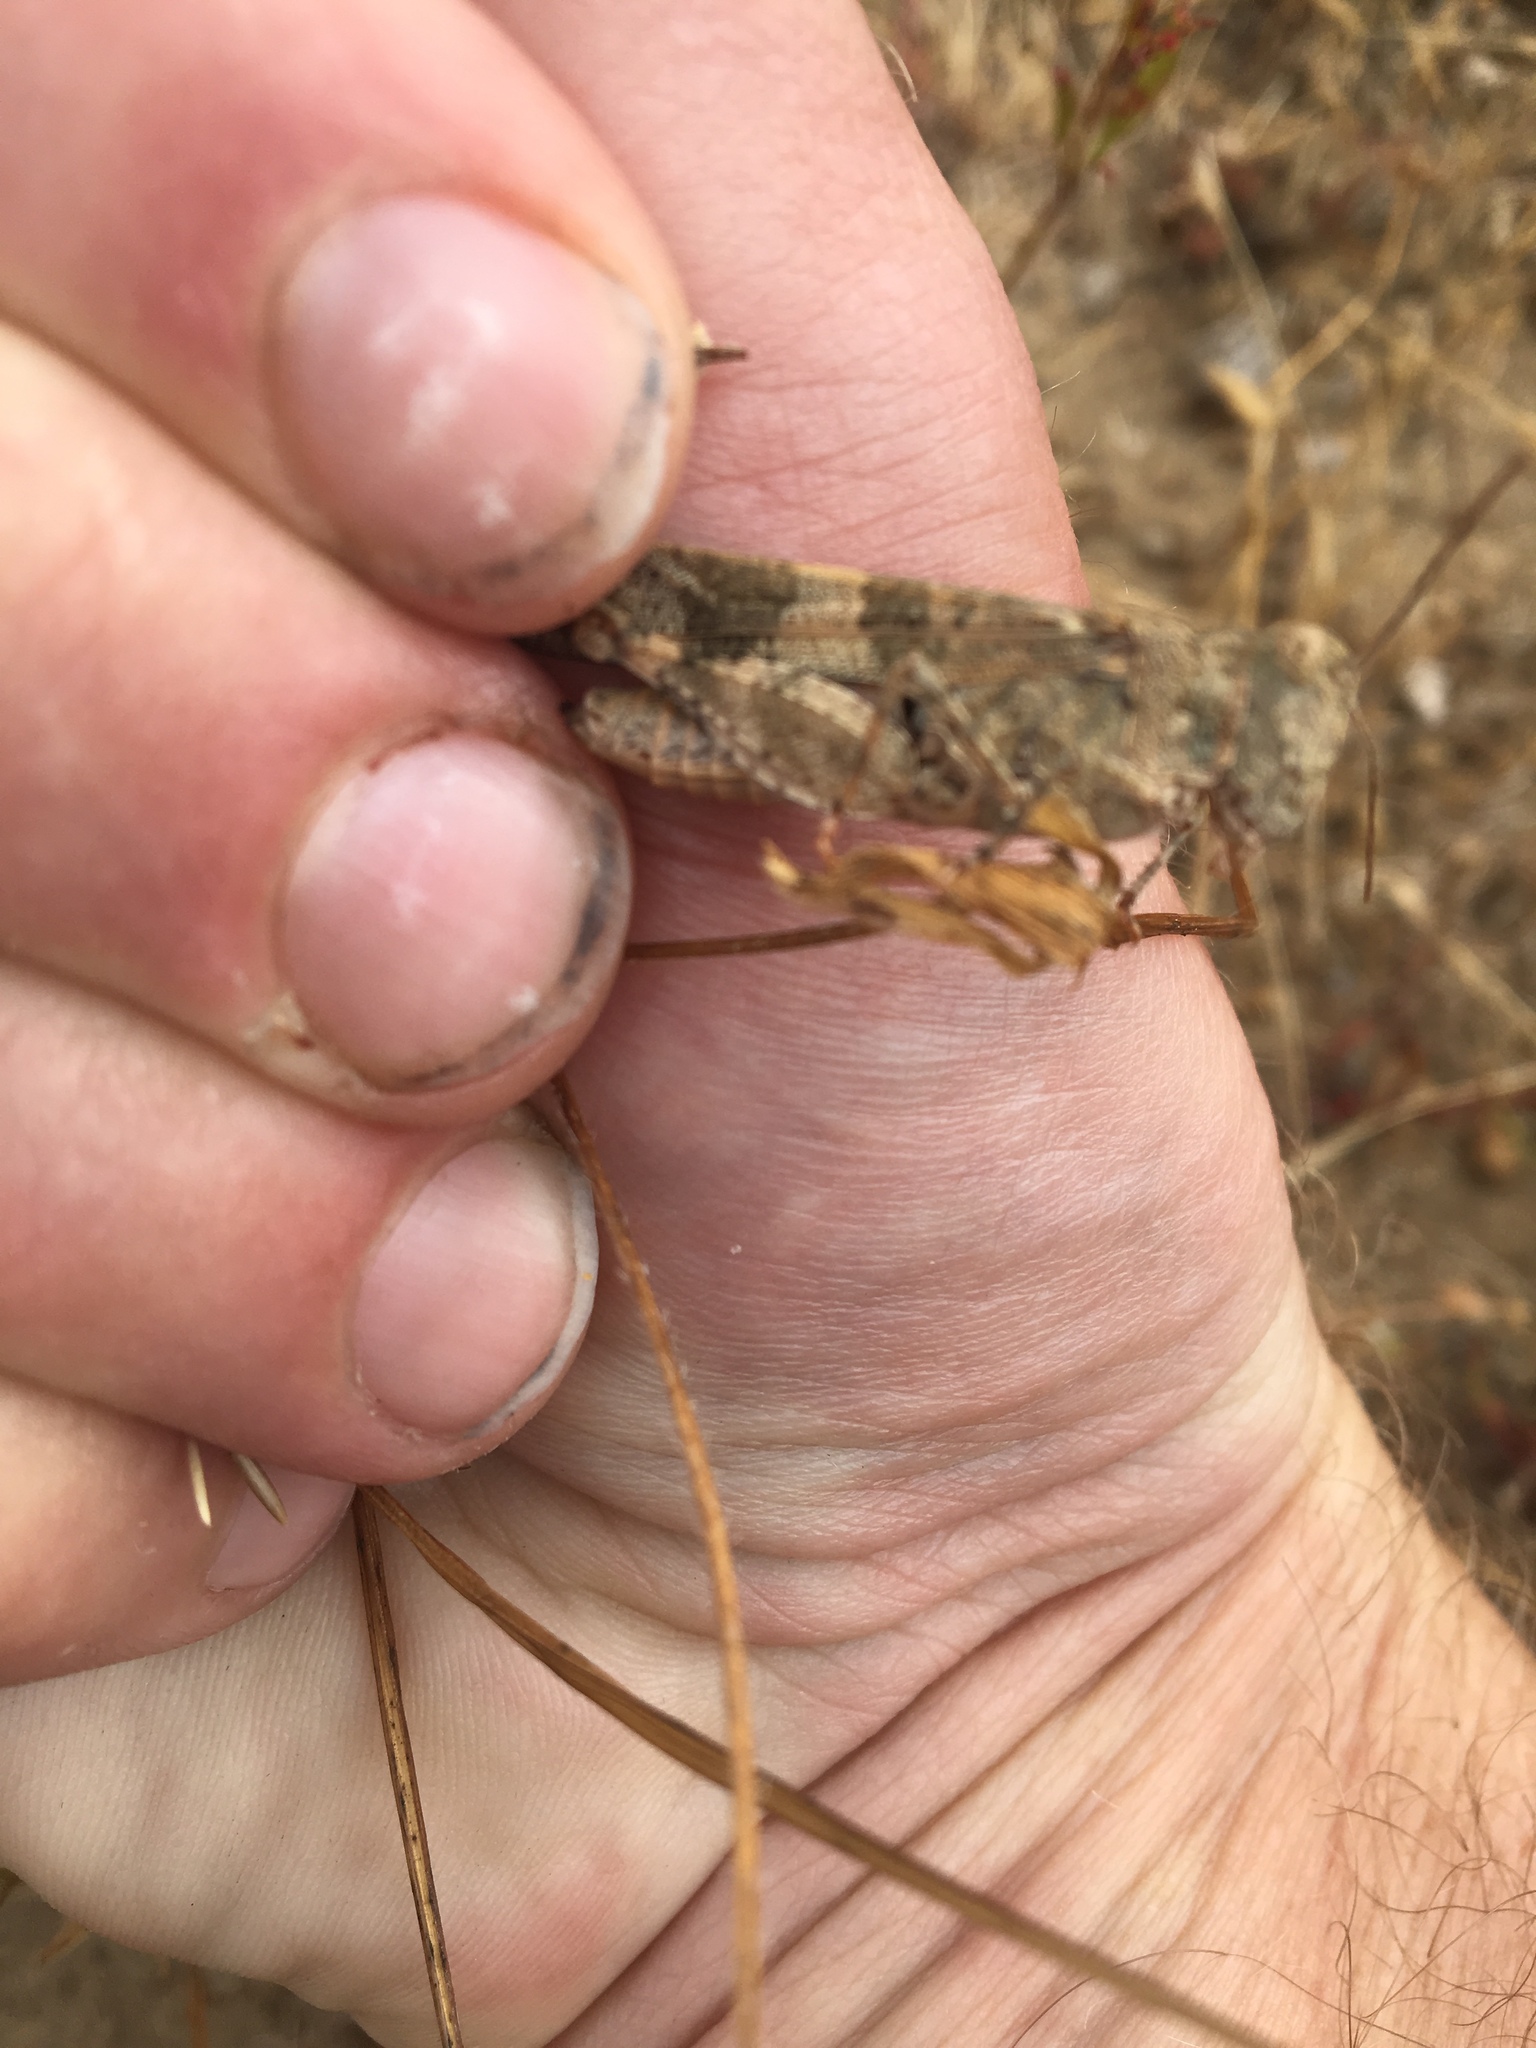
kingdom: Animalia
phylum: Arthropoda
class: Insecta
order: Orthoptera
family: Acrididae
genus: Trimerotropis
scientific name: Trimerotropis pallidipennis
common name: Pallid-winged grasshopper
